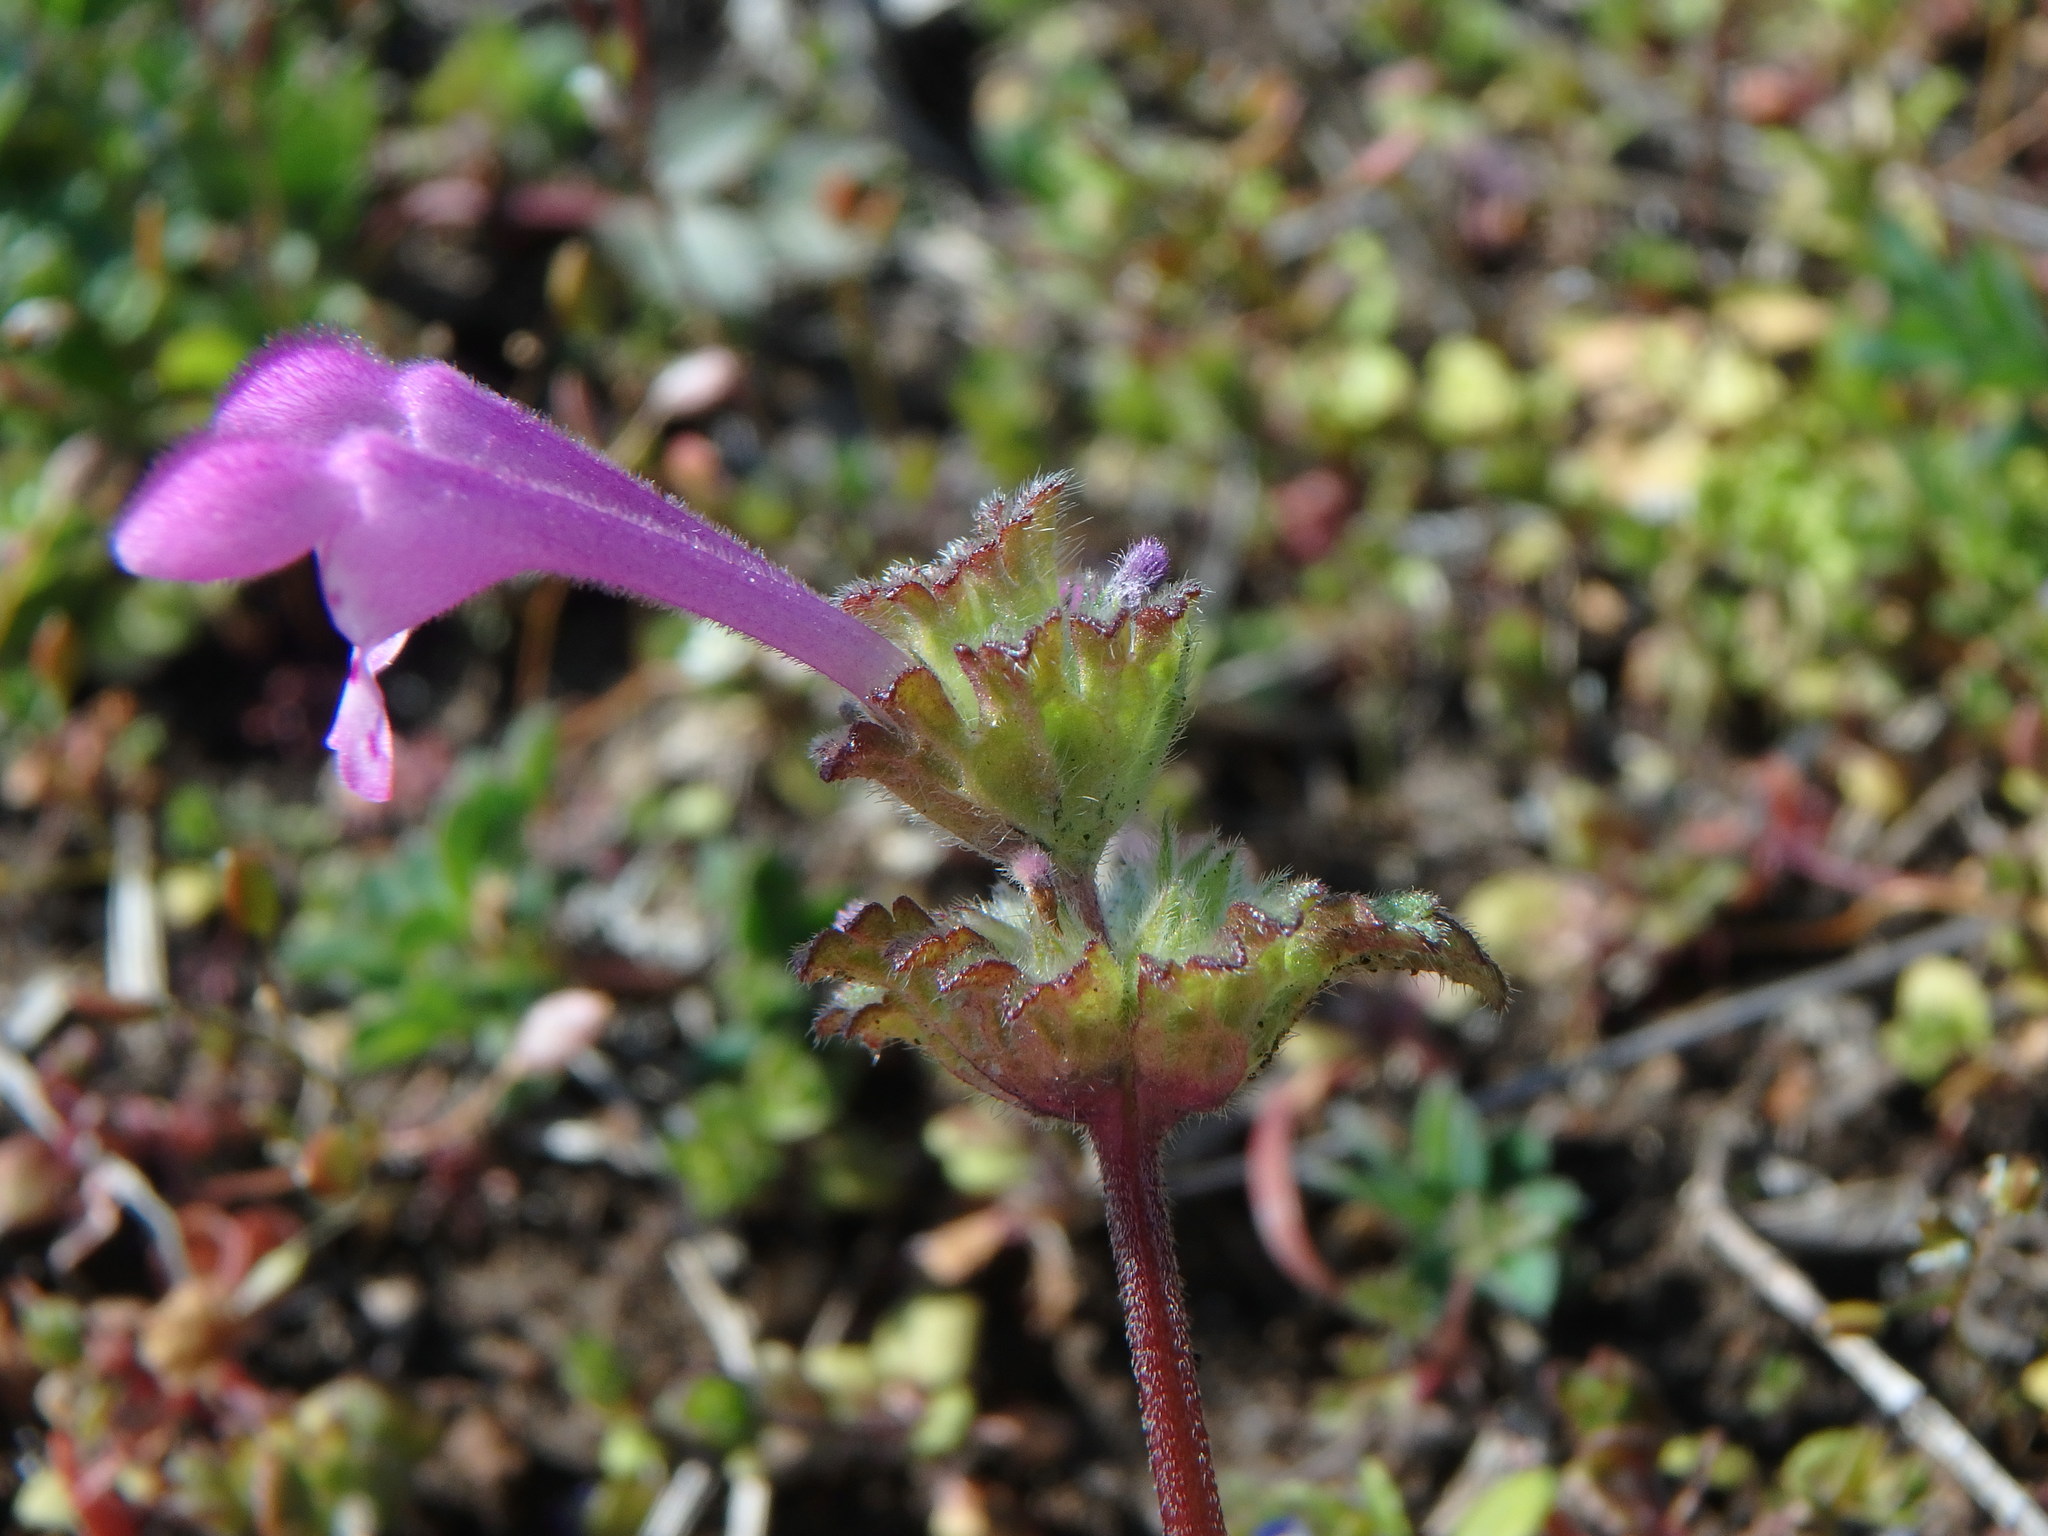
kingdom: Plantae
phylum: Tracheophyta
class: Magnoliopsida
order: Lamiales
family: Lamiaceae
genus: Lamium
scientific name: Lamium amplexicaule
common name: Henbit dead-nettle
